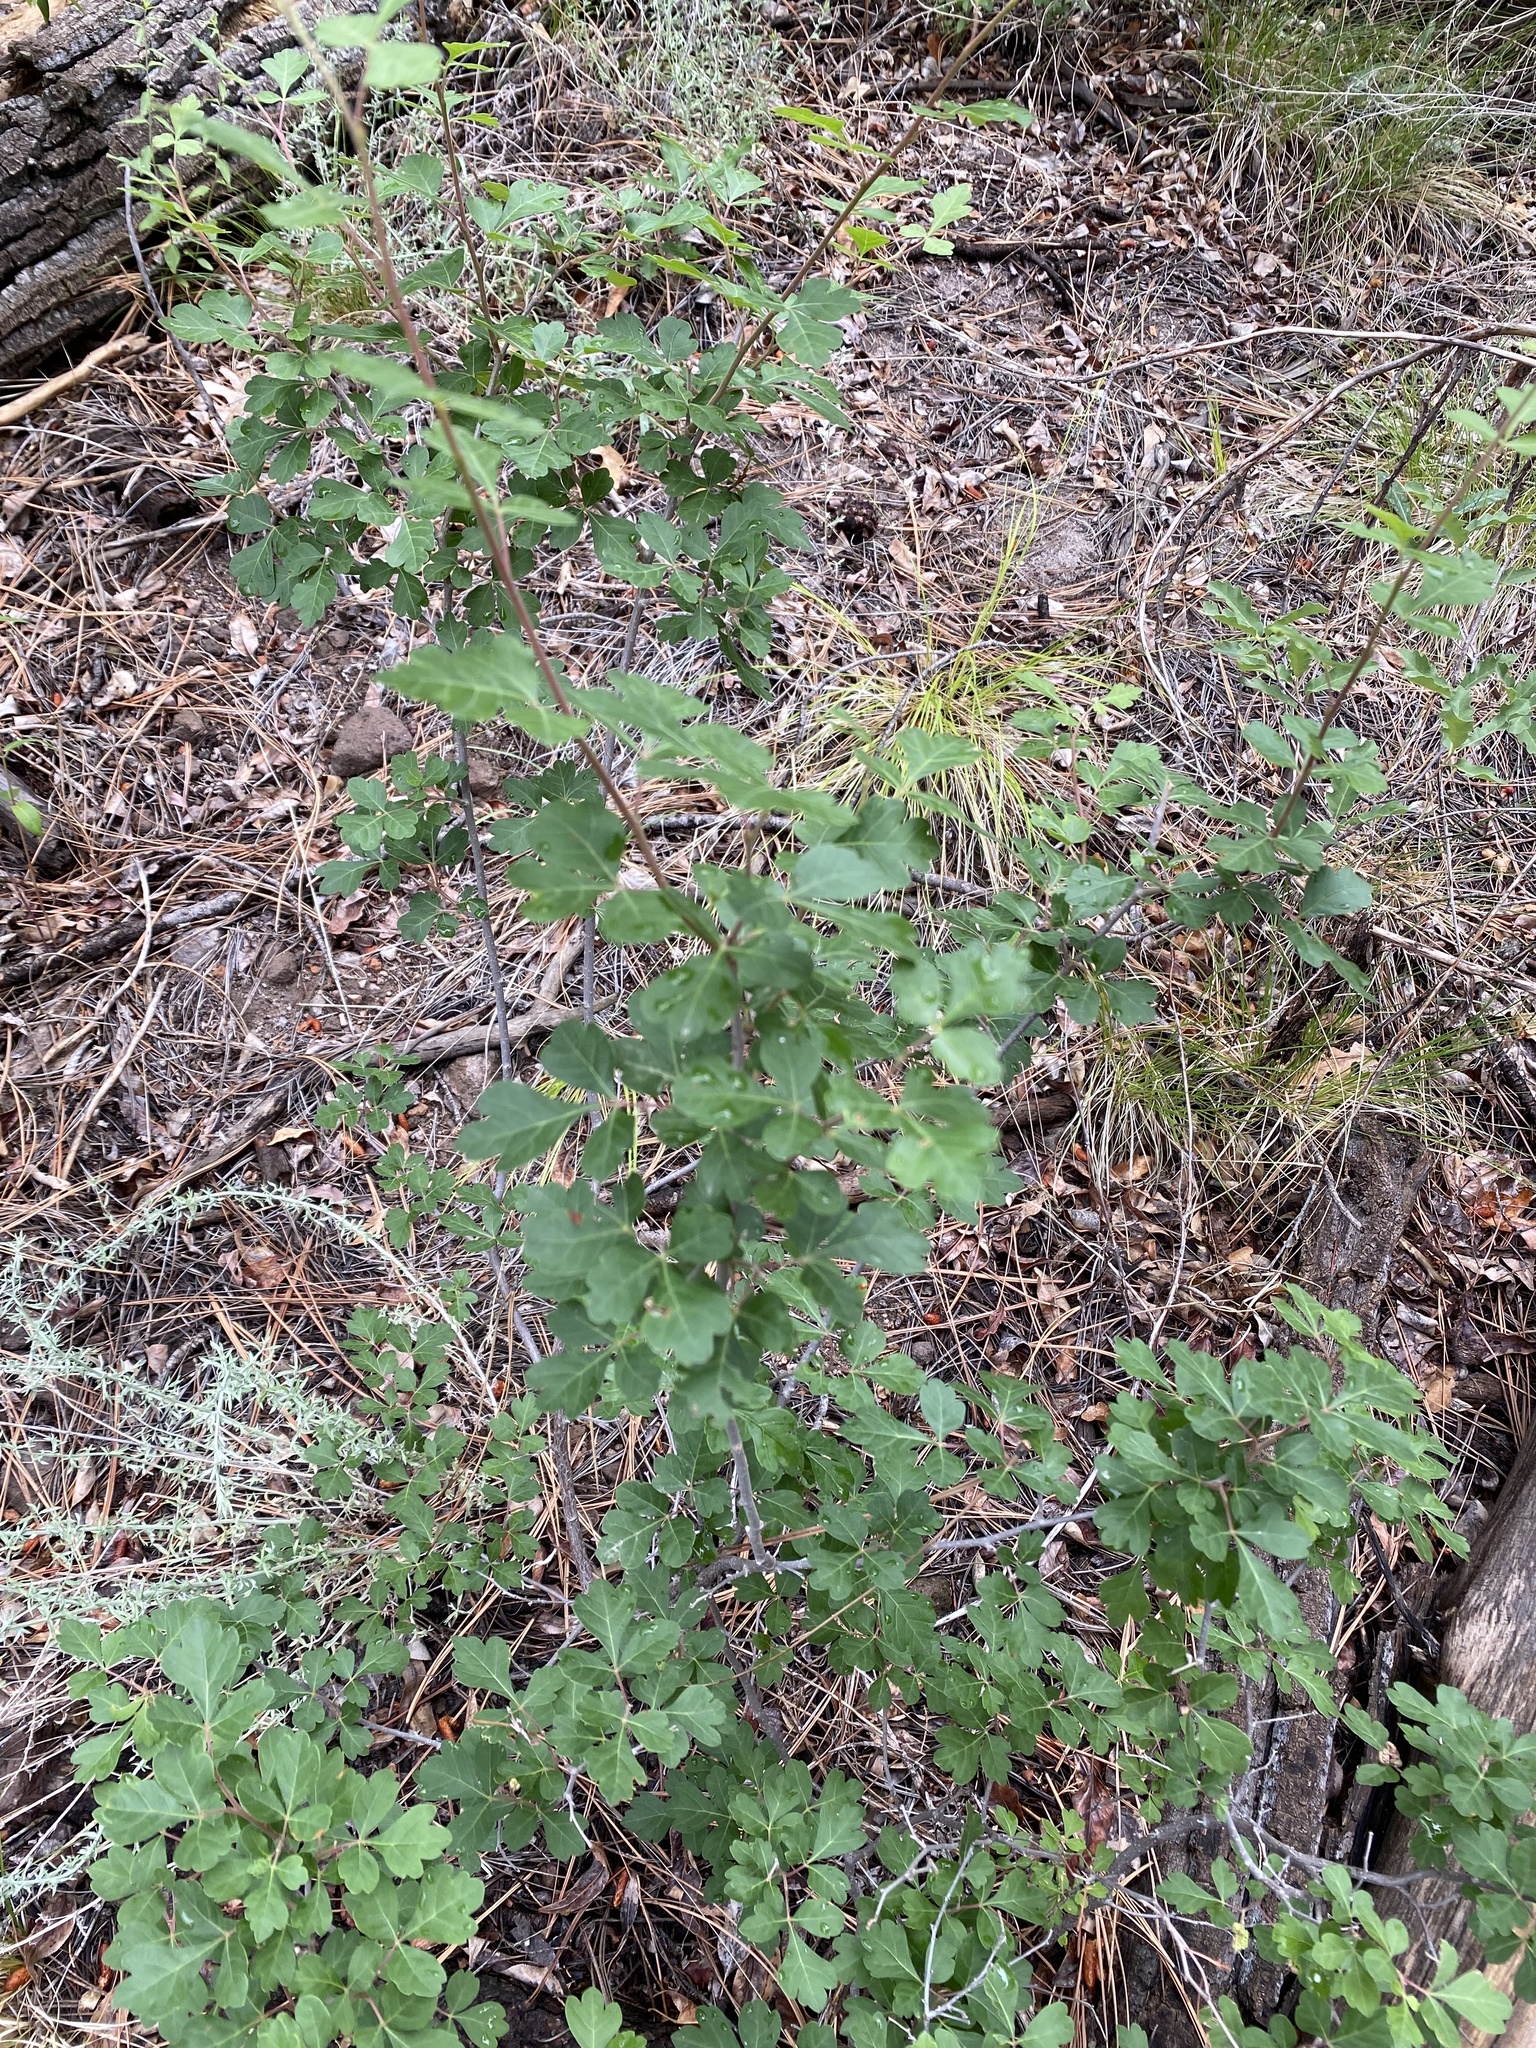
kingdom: Plantae
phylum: Tracheophyta
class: Magnoliopsida
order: Sapindales
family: Anacardiaceae
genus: Rhus
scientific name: Rhus trilobata
